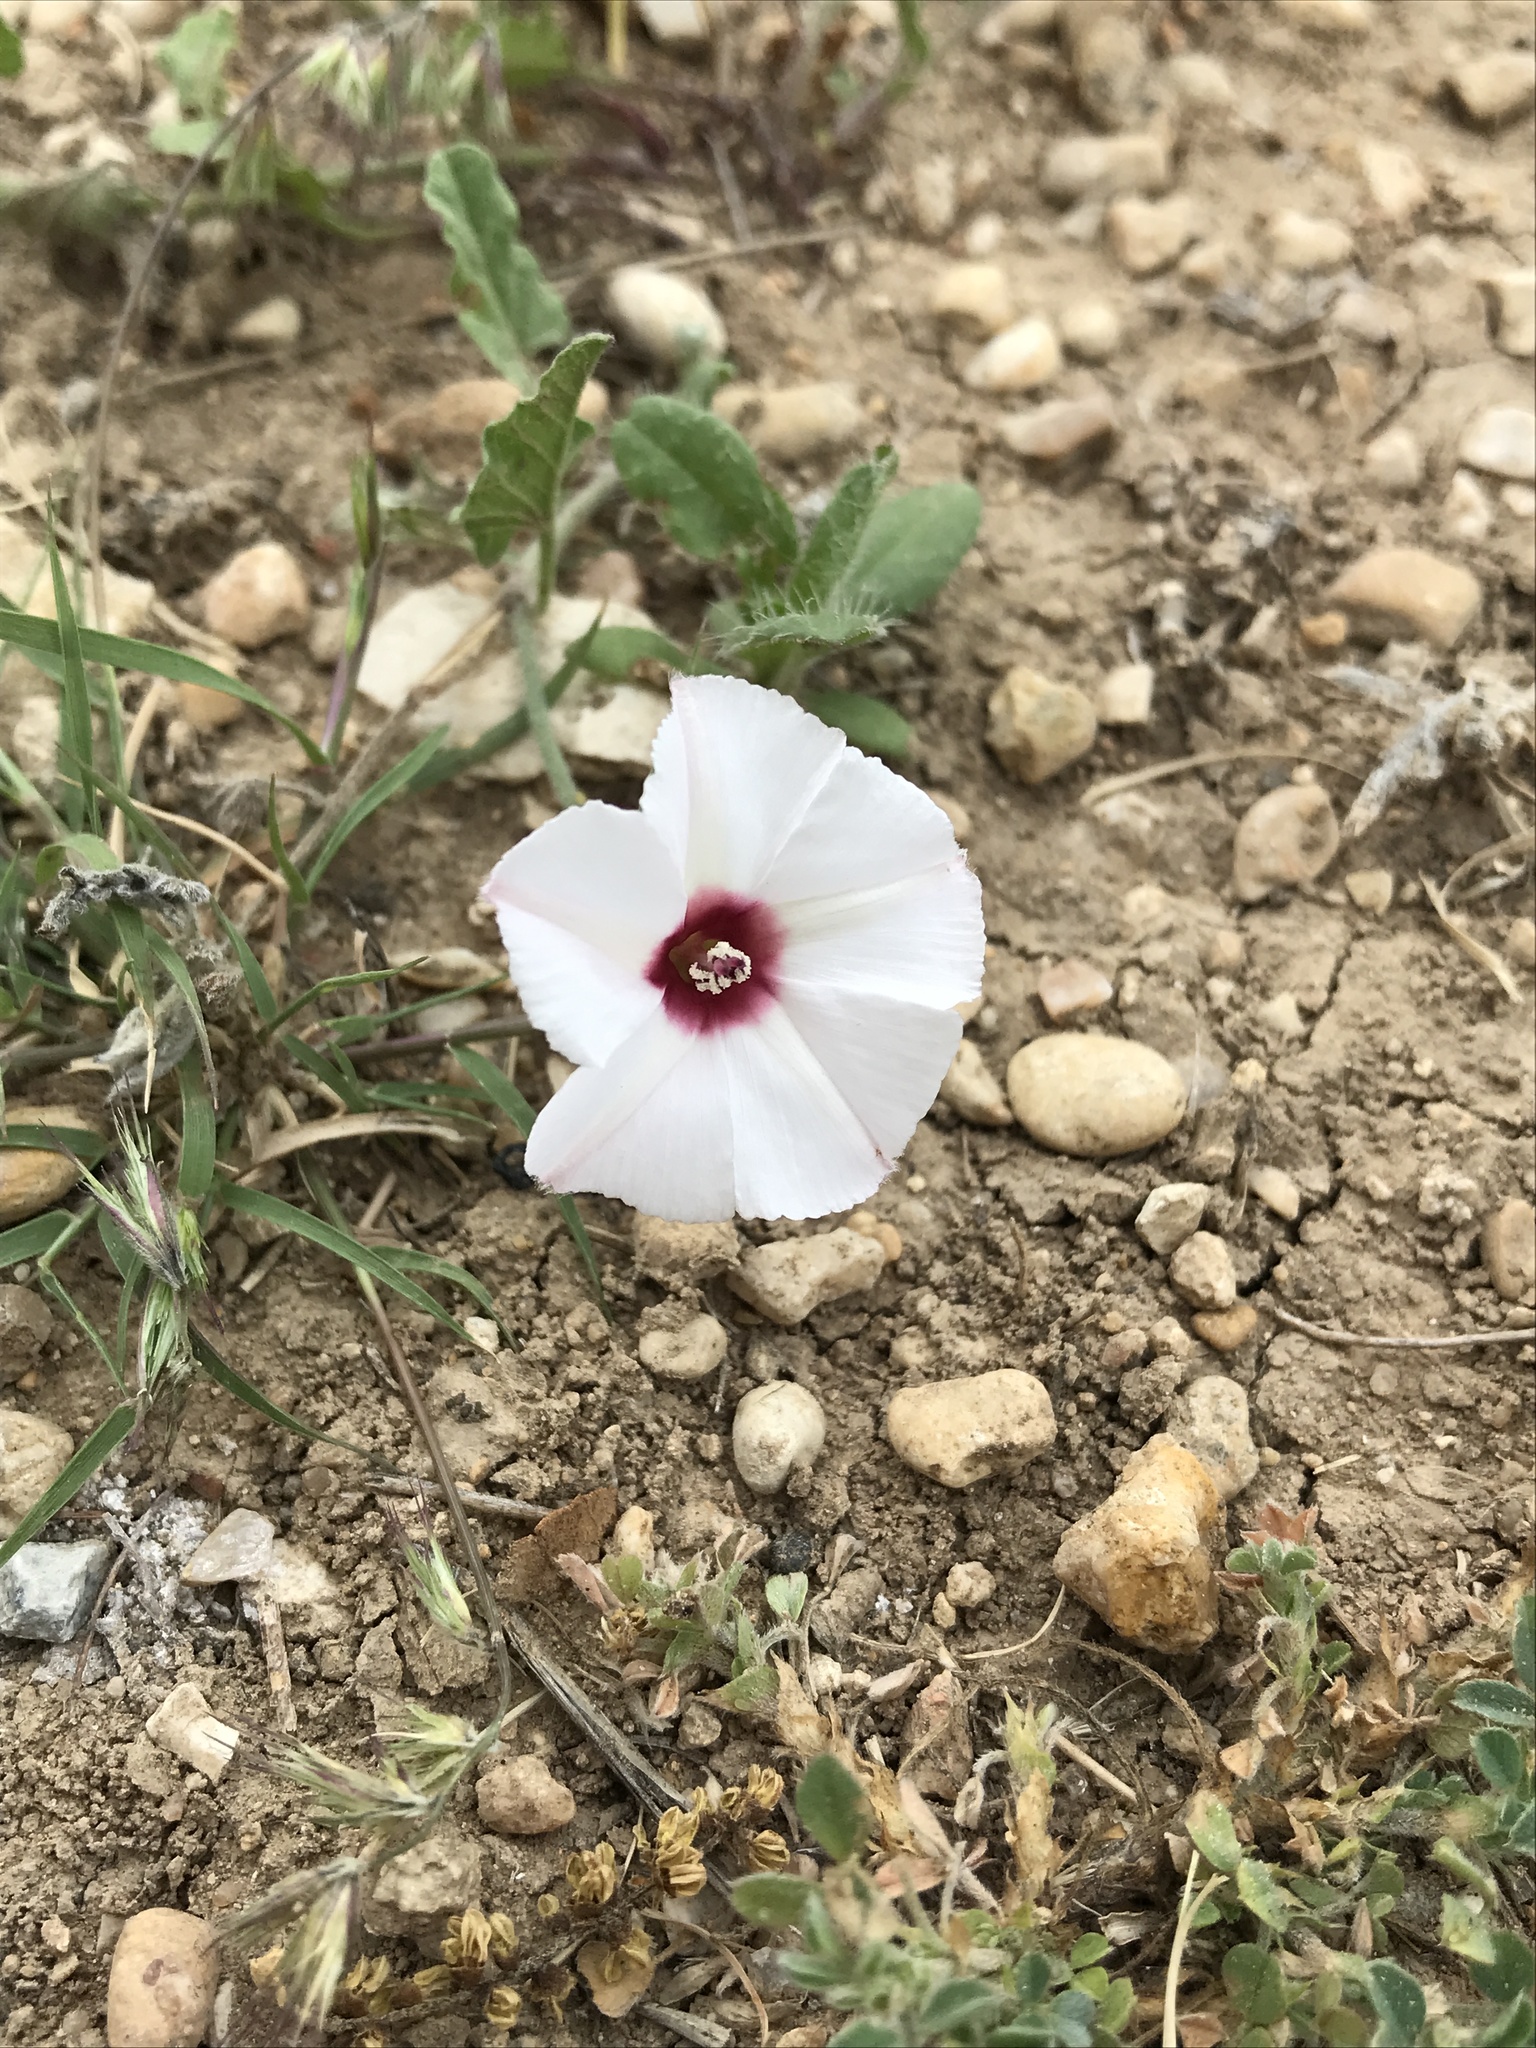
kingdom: Plantae
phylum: Tracheophyta
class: Magnoliopsida
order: Solanales
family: Convolvulaceae
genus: Convolvulus
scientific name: Convolvulus equitans
